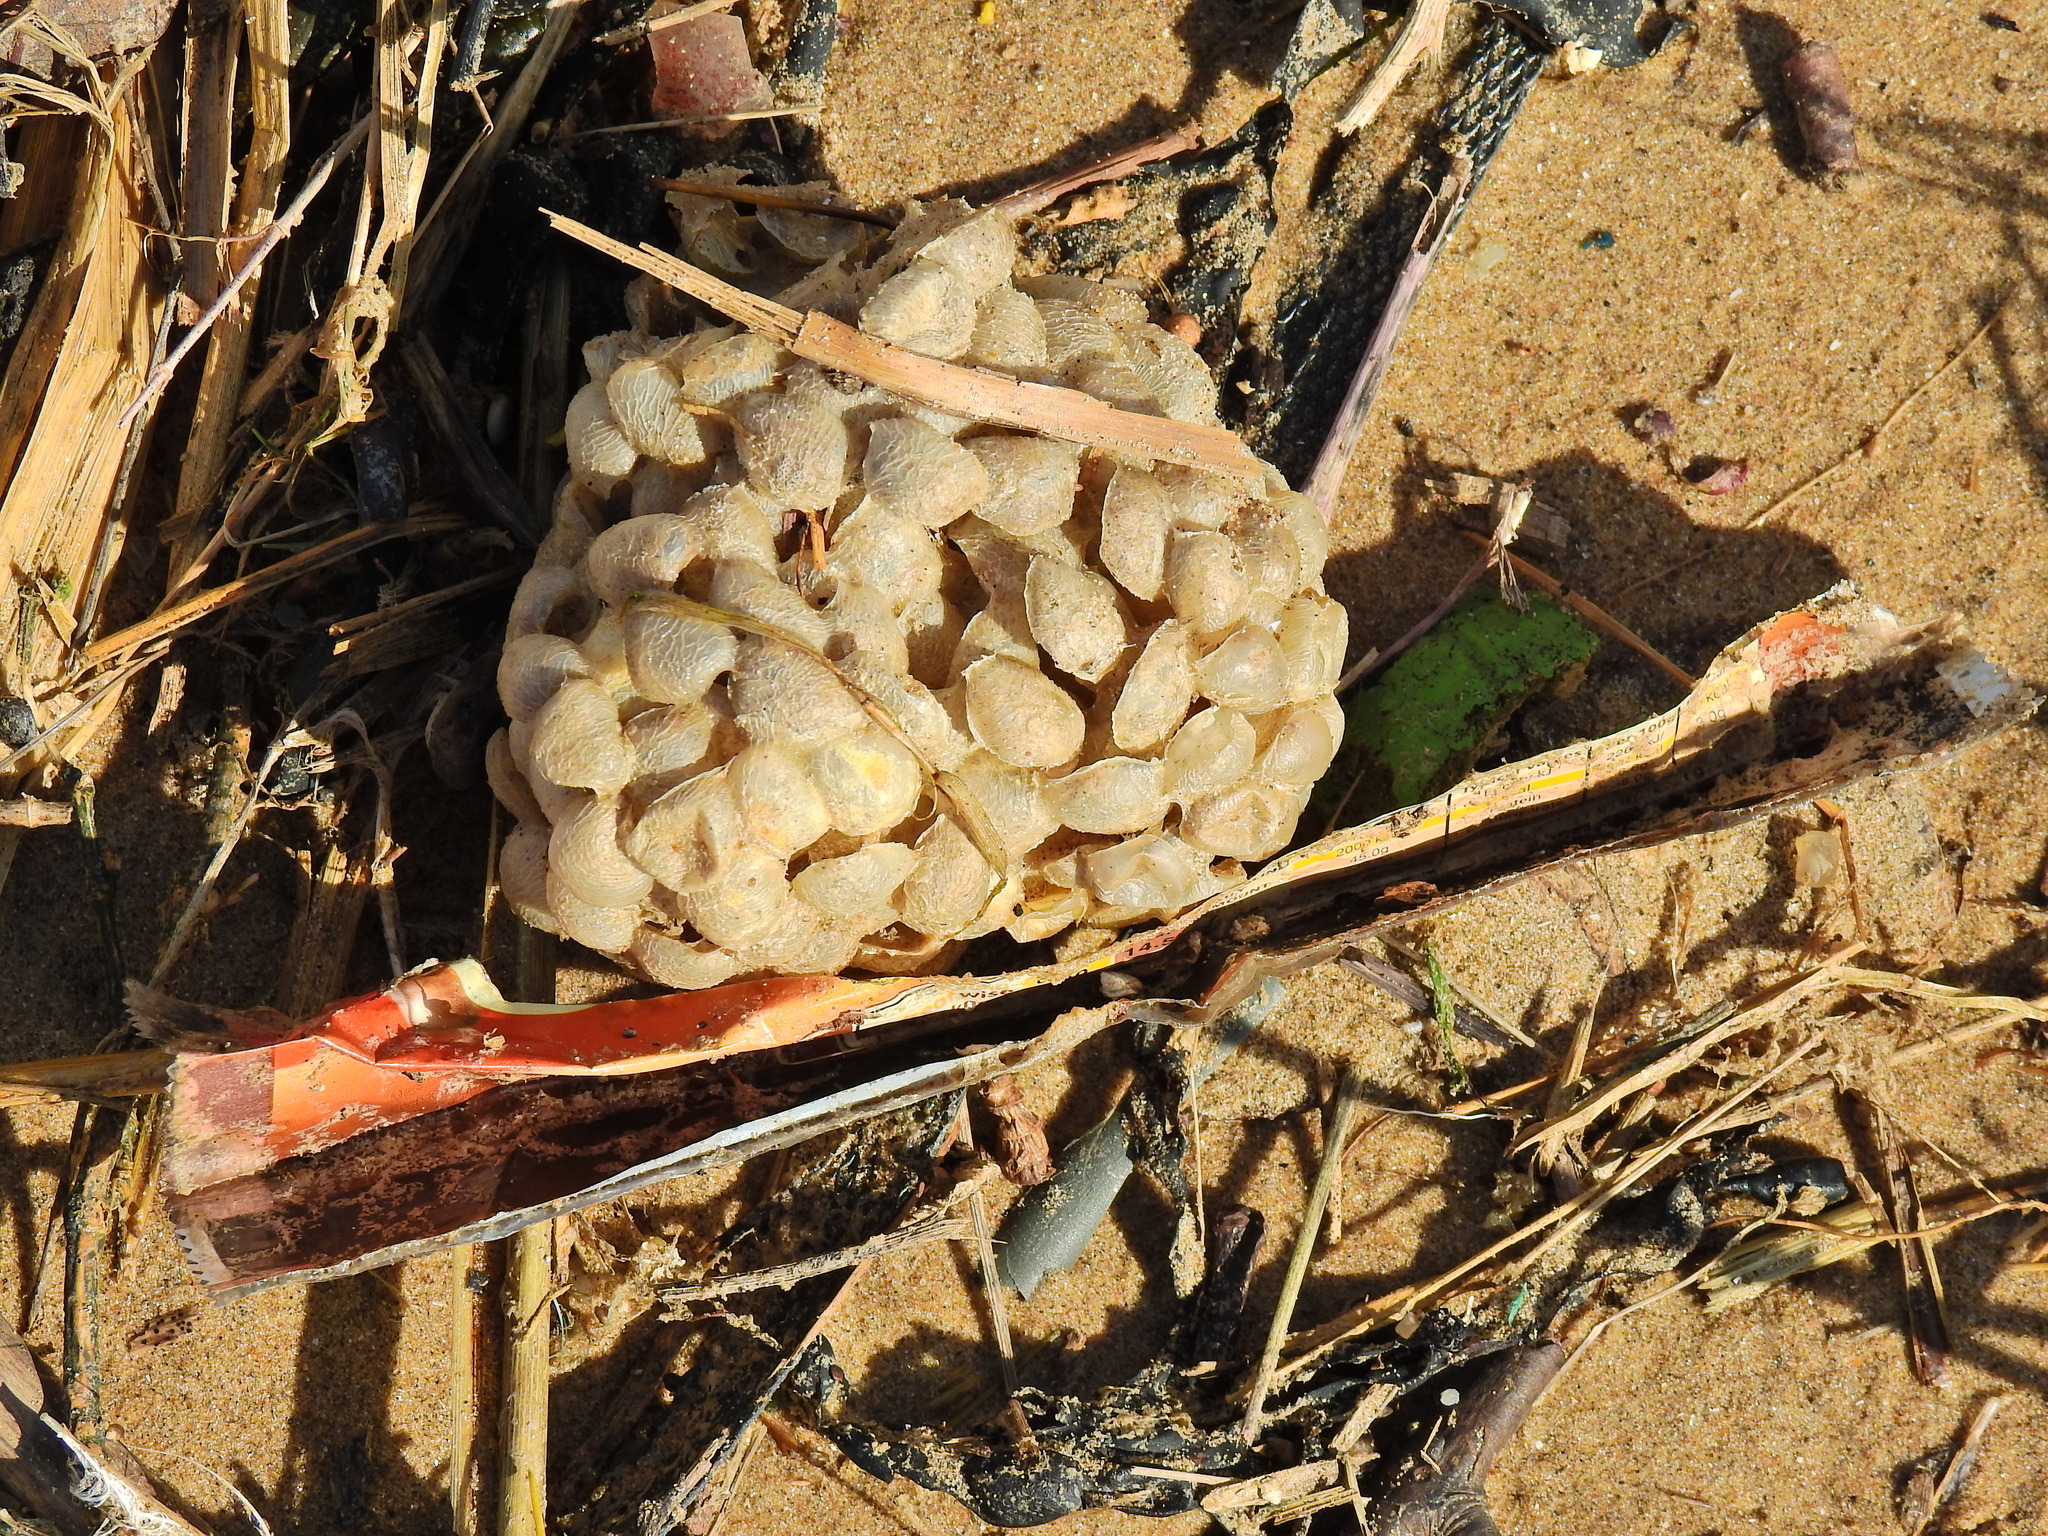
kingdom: Animalia
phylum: Mollusca
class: Gastropoda
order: Neogastropoda
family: Buccinidae
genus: Buccinum
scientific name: Buccinum undatum
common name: Common whelk
